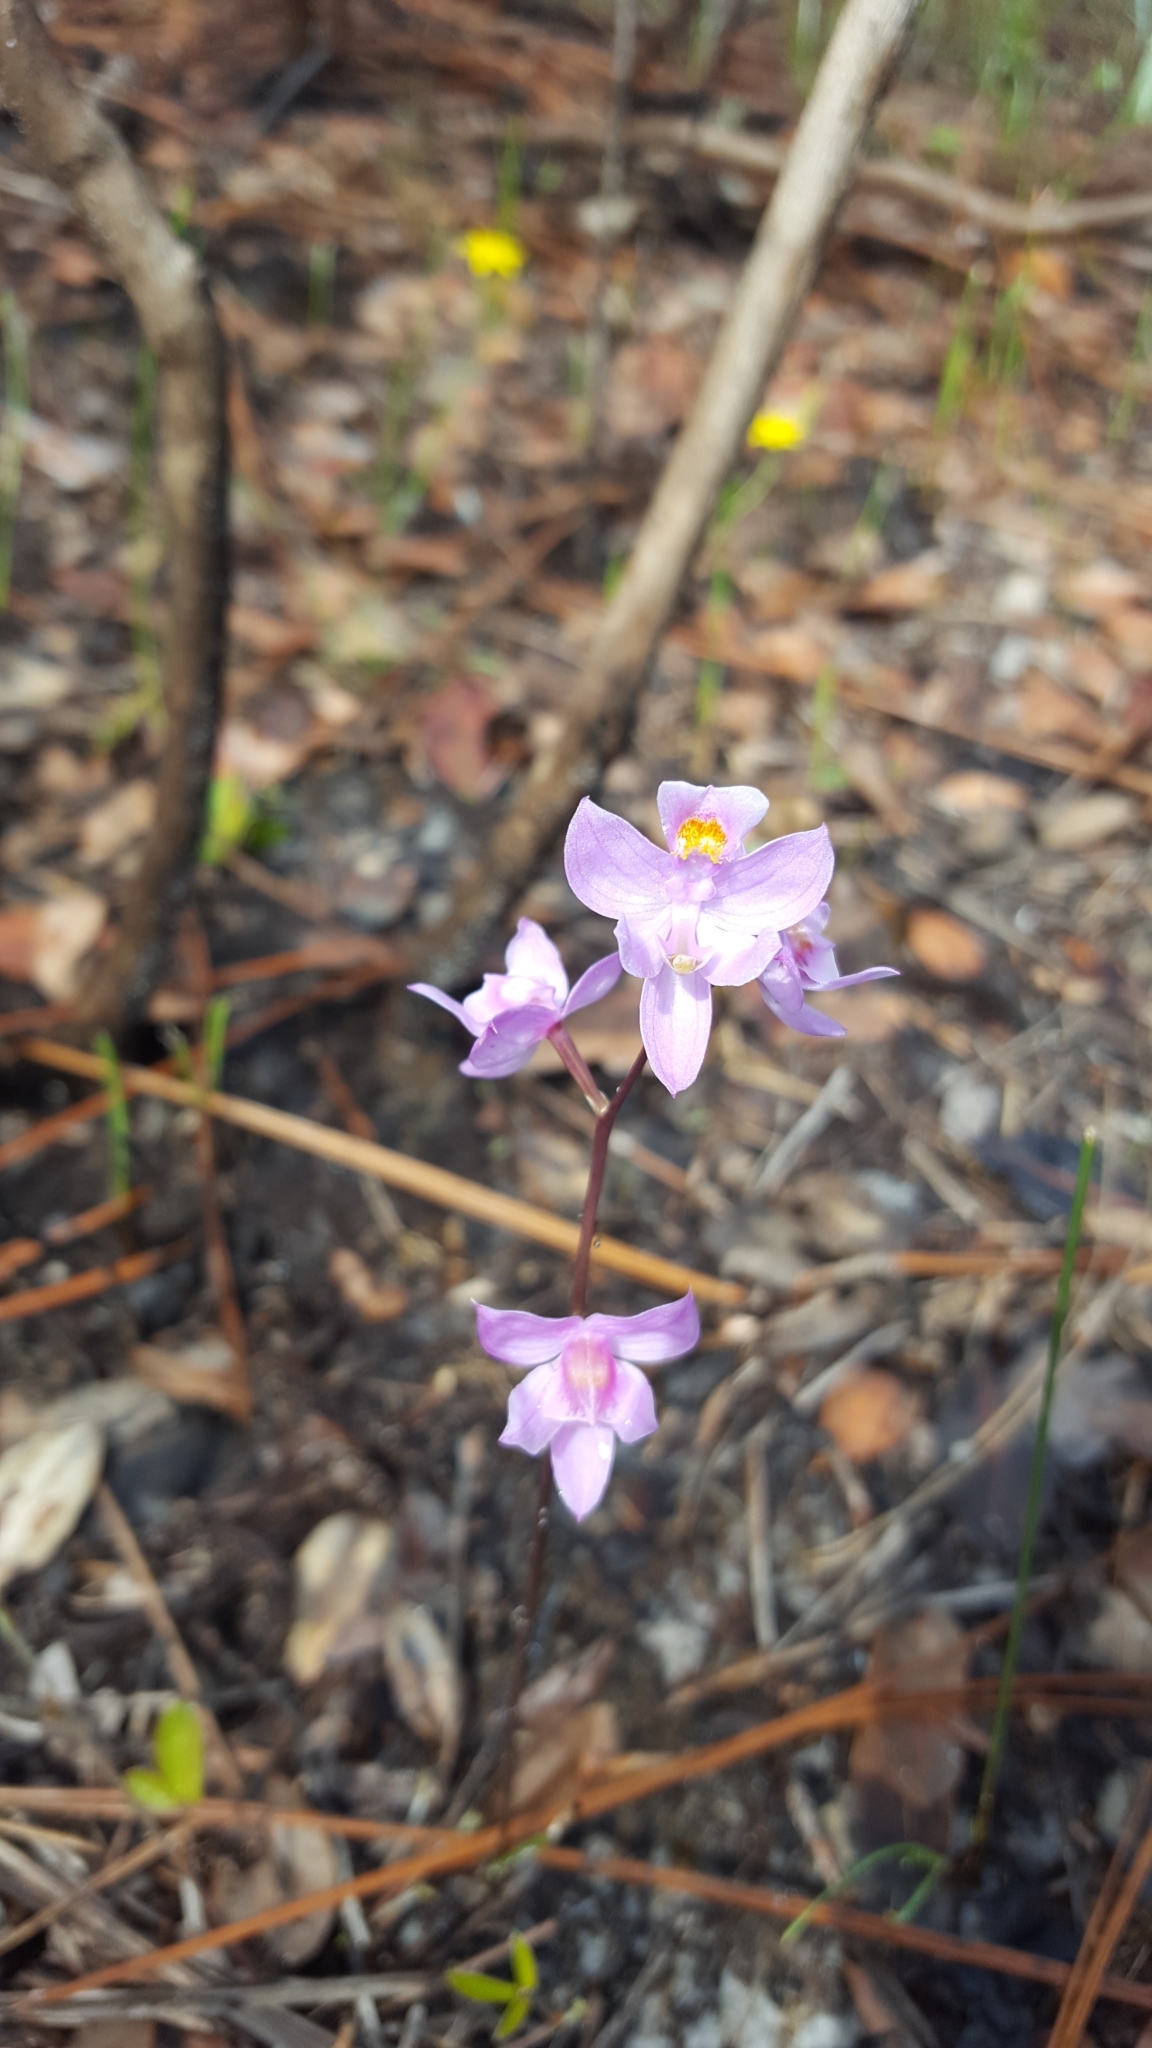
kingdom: Plantae
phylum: Tracheophyta
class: Liliopsida
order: Asparagales
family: Orchidaceae
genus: Calopogon
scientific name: Calopogon multiflorus
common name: Many-flowered grass-pink orchid
